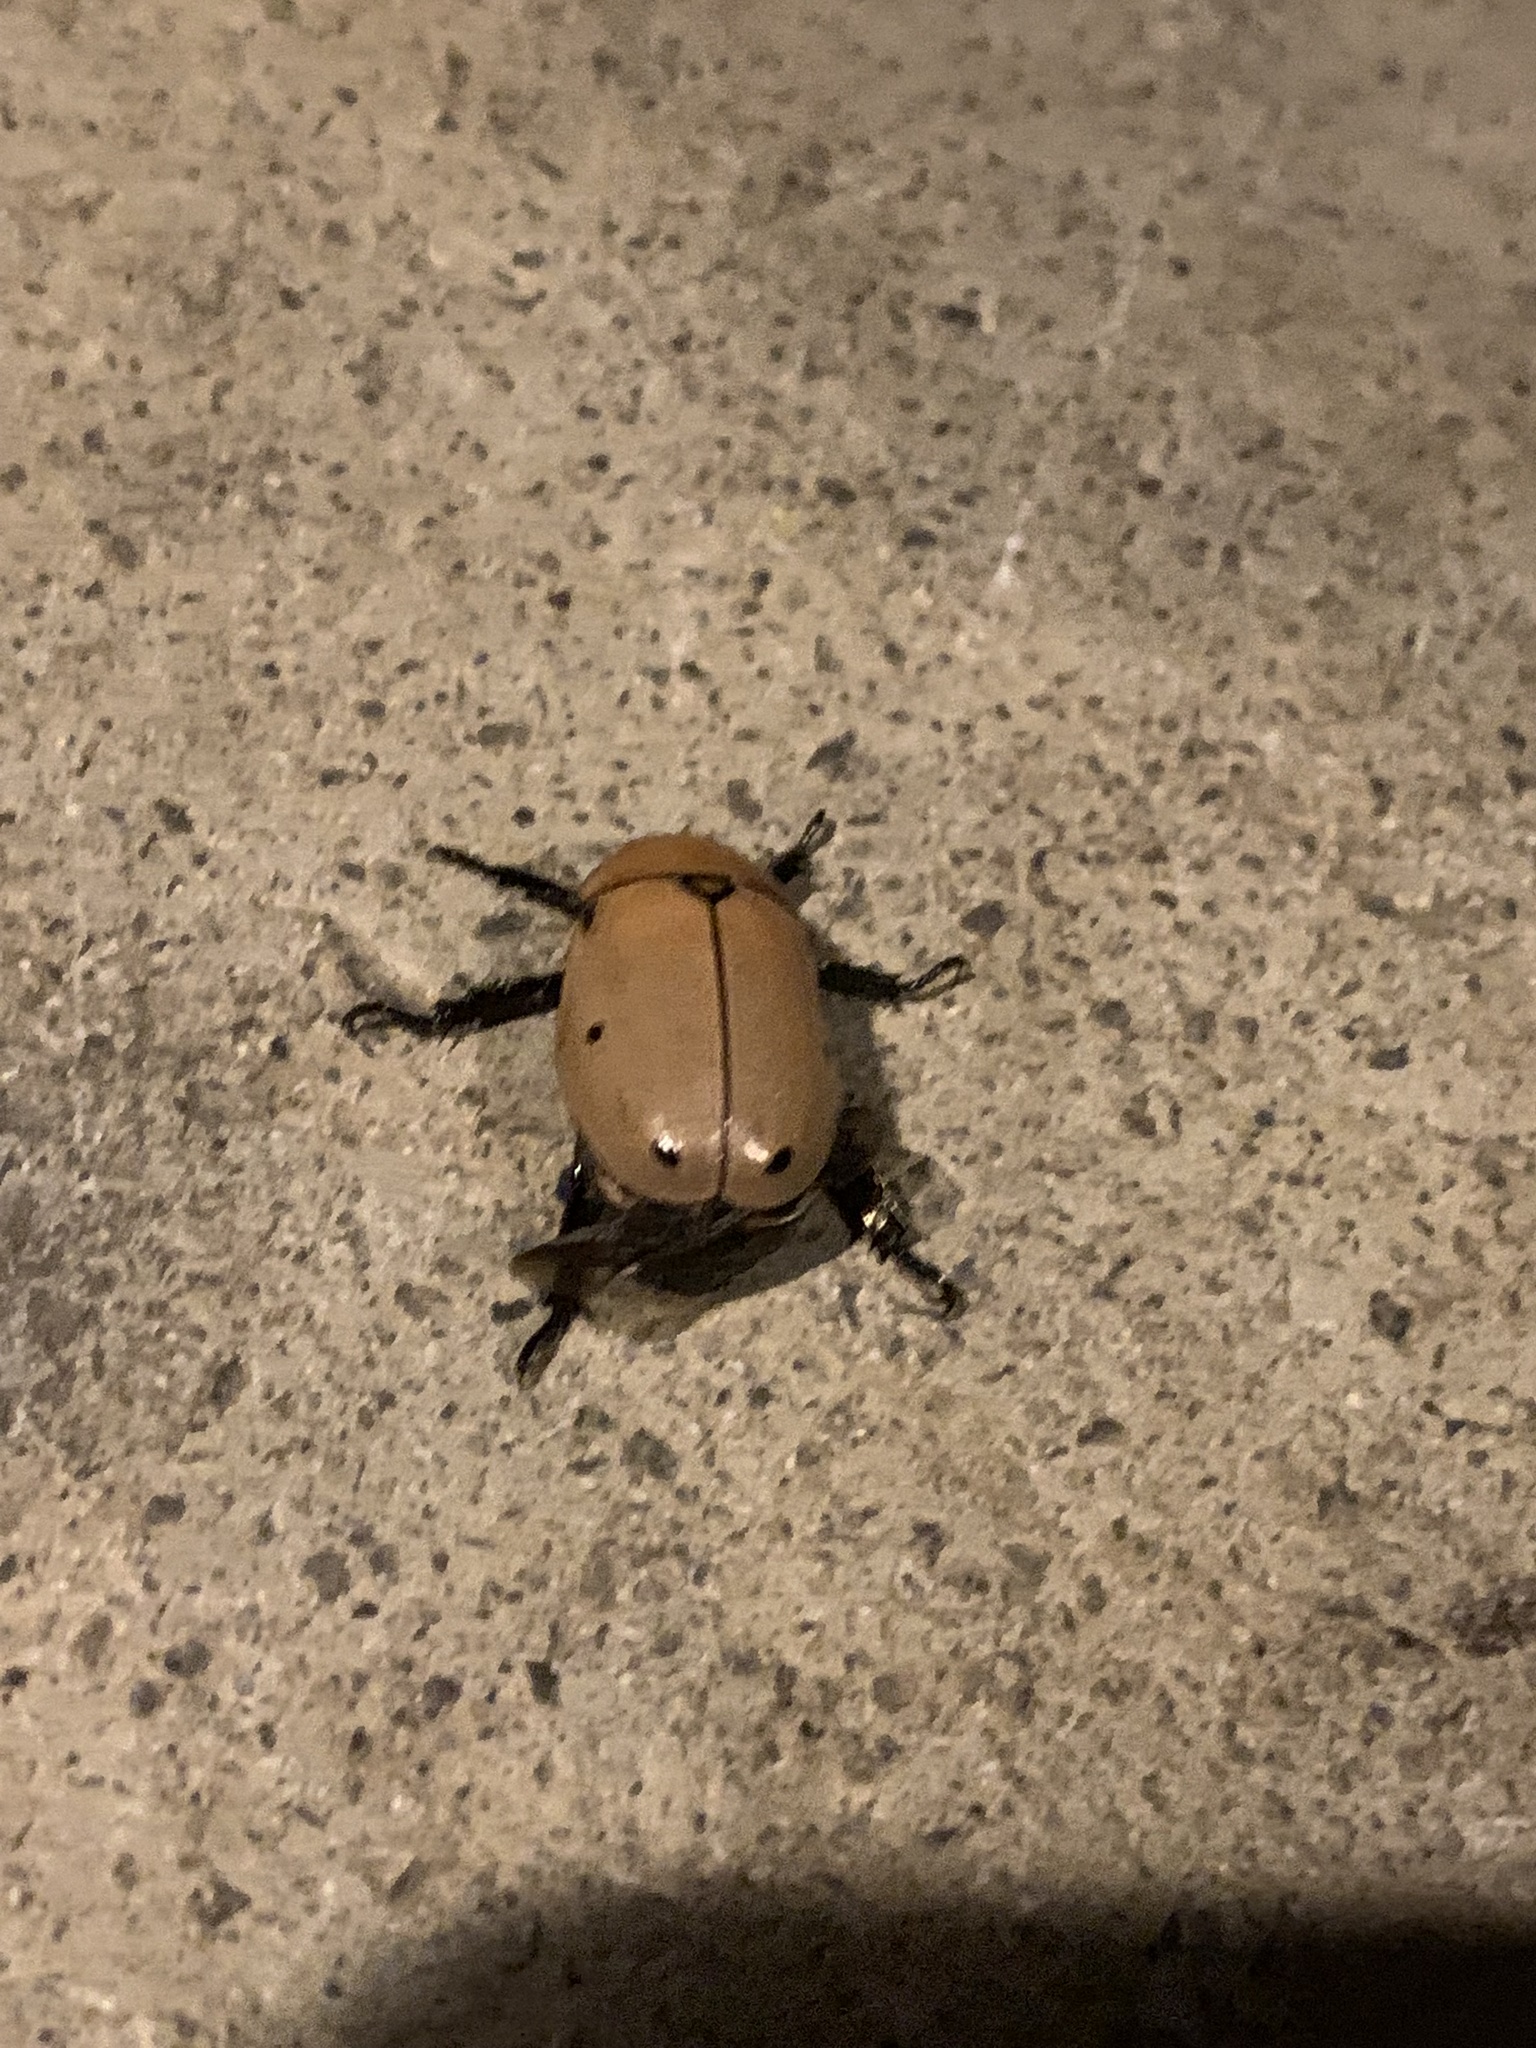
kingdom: Animalia
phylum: Arthropoda
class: Insecta
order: Coleoptera
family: Scarabaeidae
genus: Pelidnota
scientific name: Pelidnota punctata
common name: Grapevine beetle
